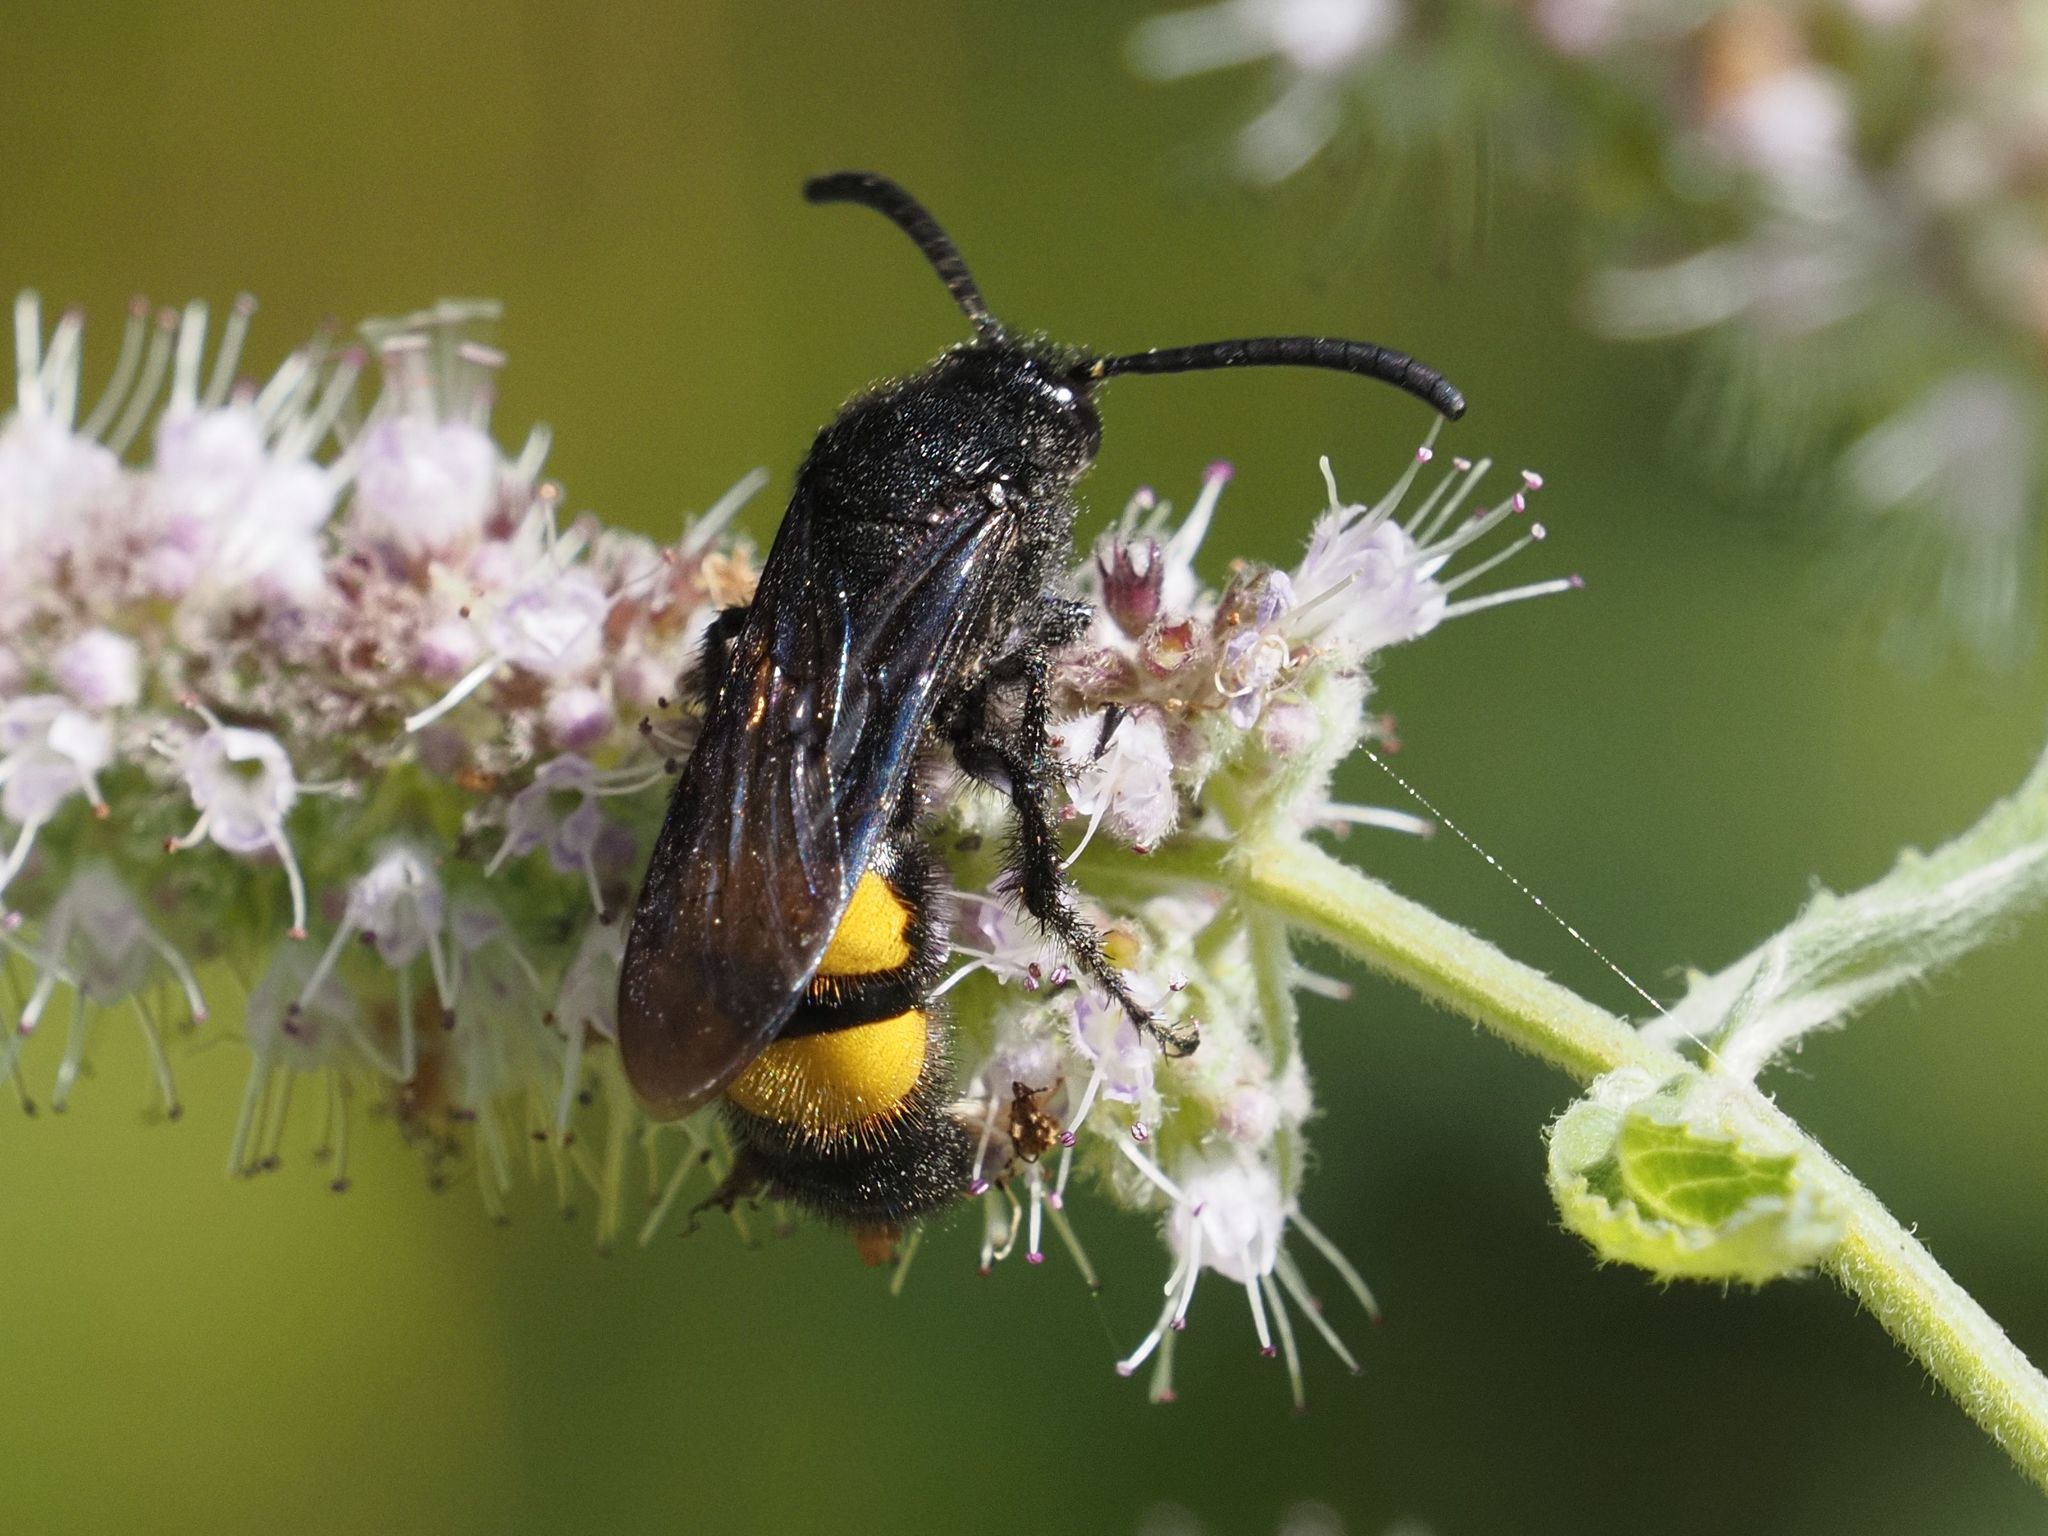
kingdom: Animalia
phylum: Arthropoda
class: Insecta
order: Hymenoptera
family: Scoliidae
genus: Scolia
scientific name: Scolia hirta
